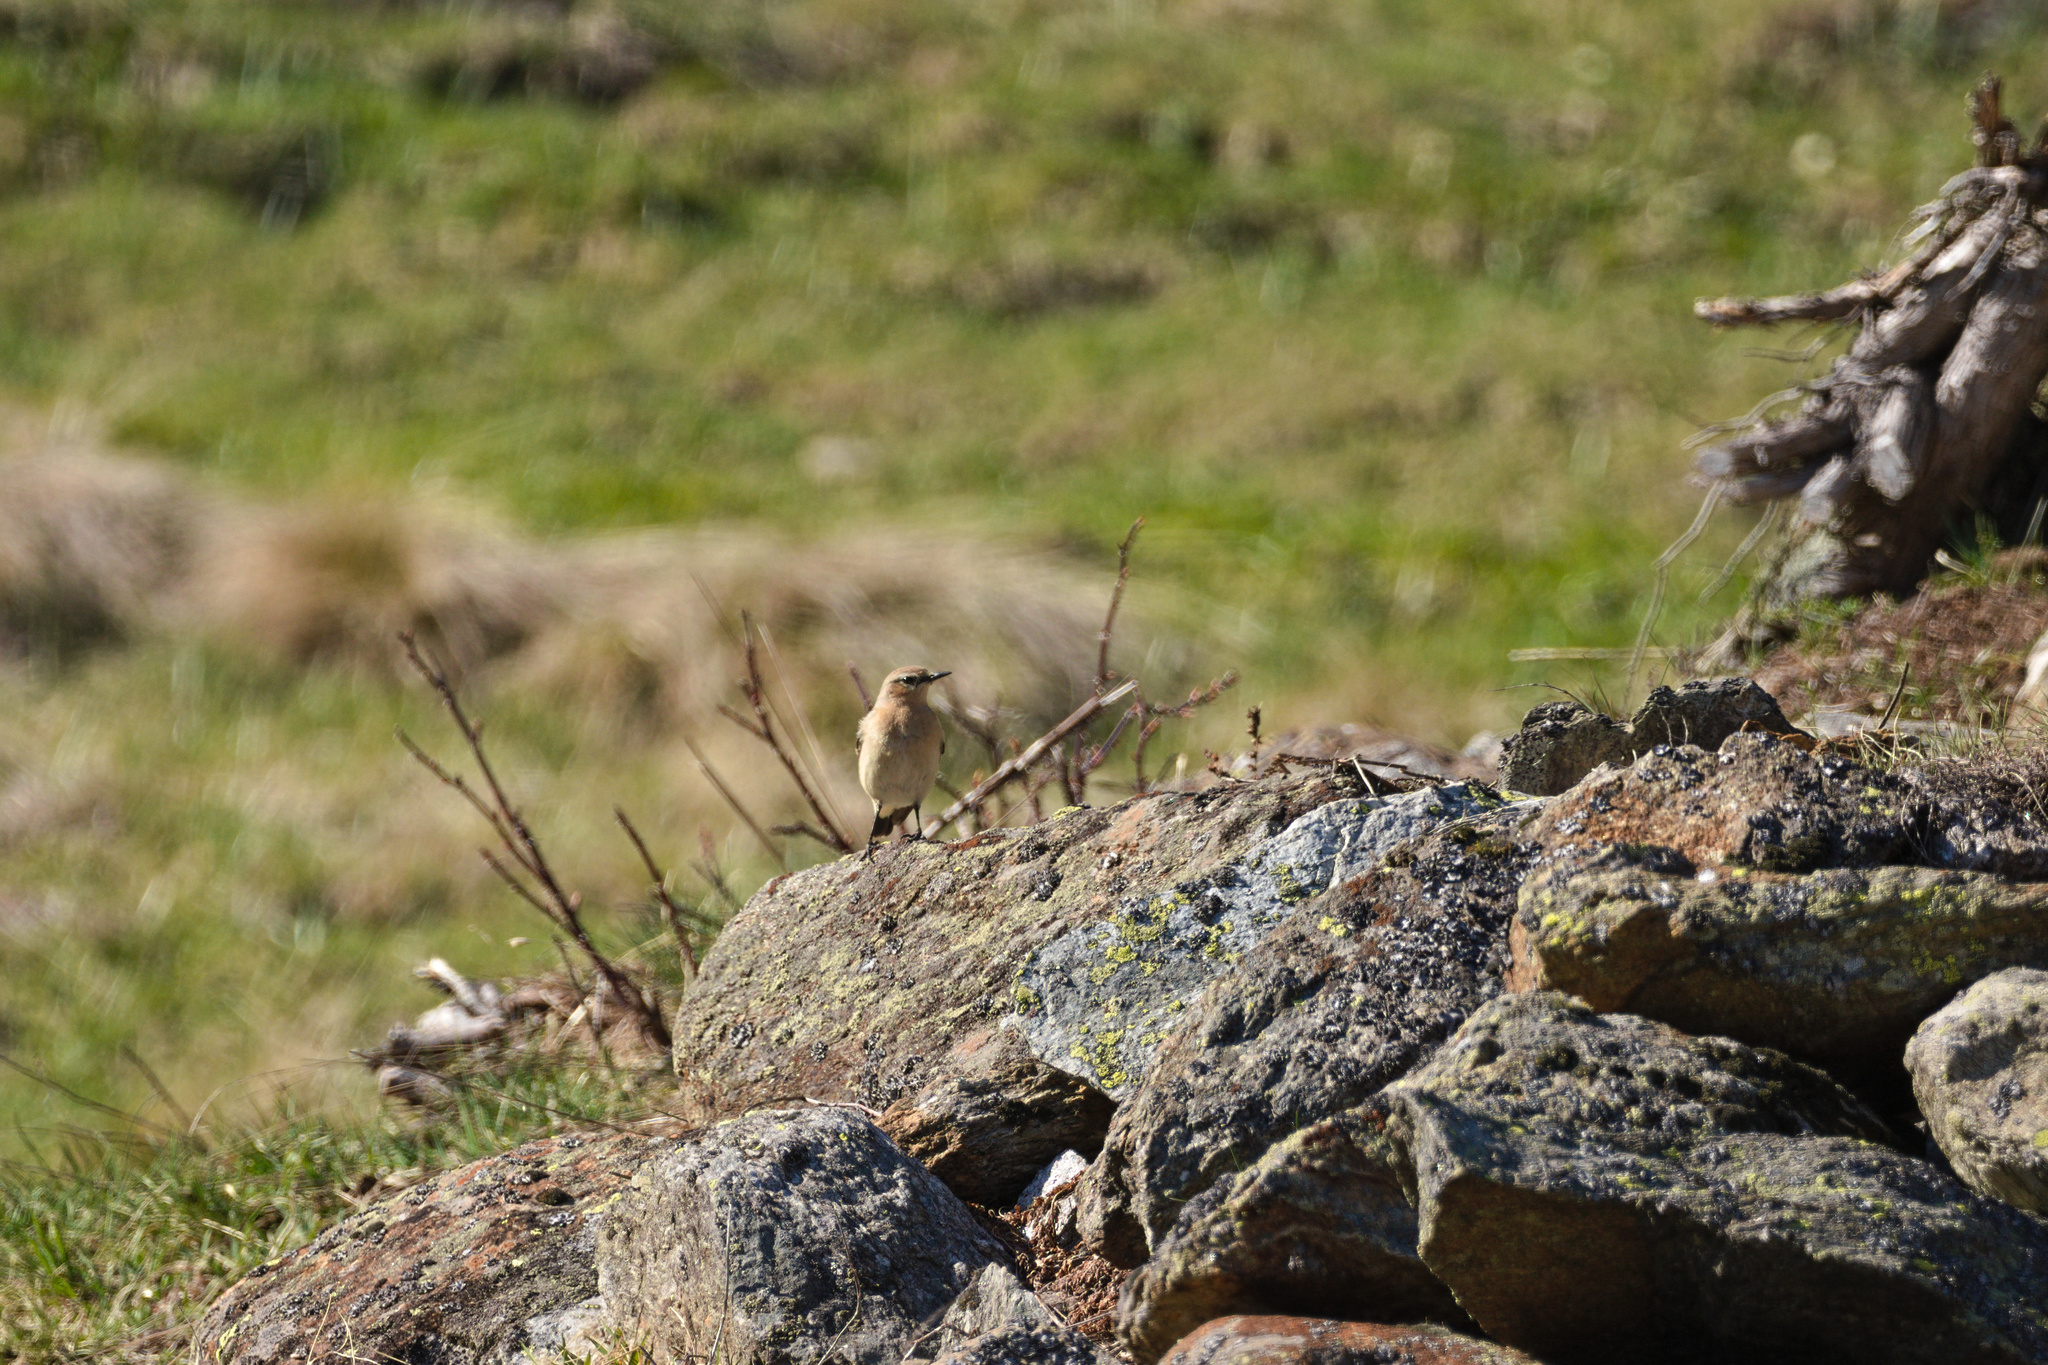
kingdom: Animalia
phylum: Chordata
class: Aves
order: Passeriformes
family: Muscicapidae
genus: Oenanthe
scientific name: Oenanthe oenanthe
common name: Northern wheatear
